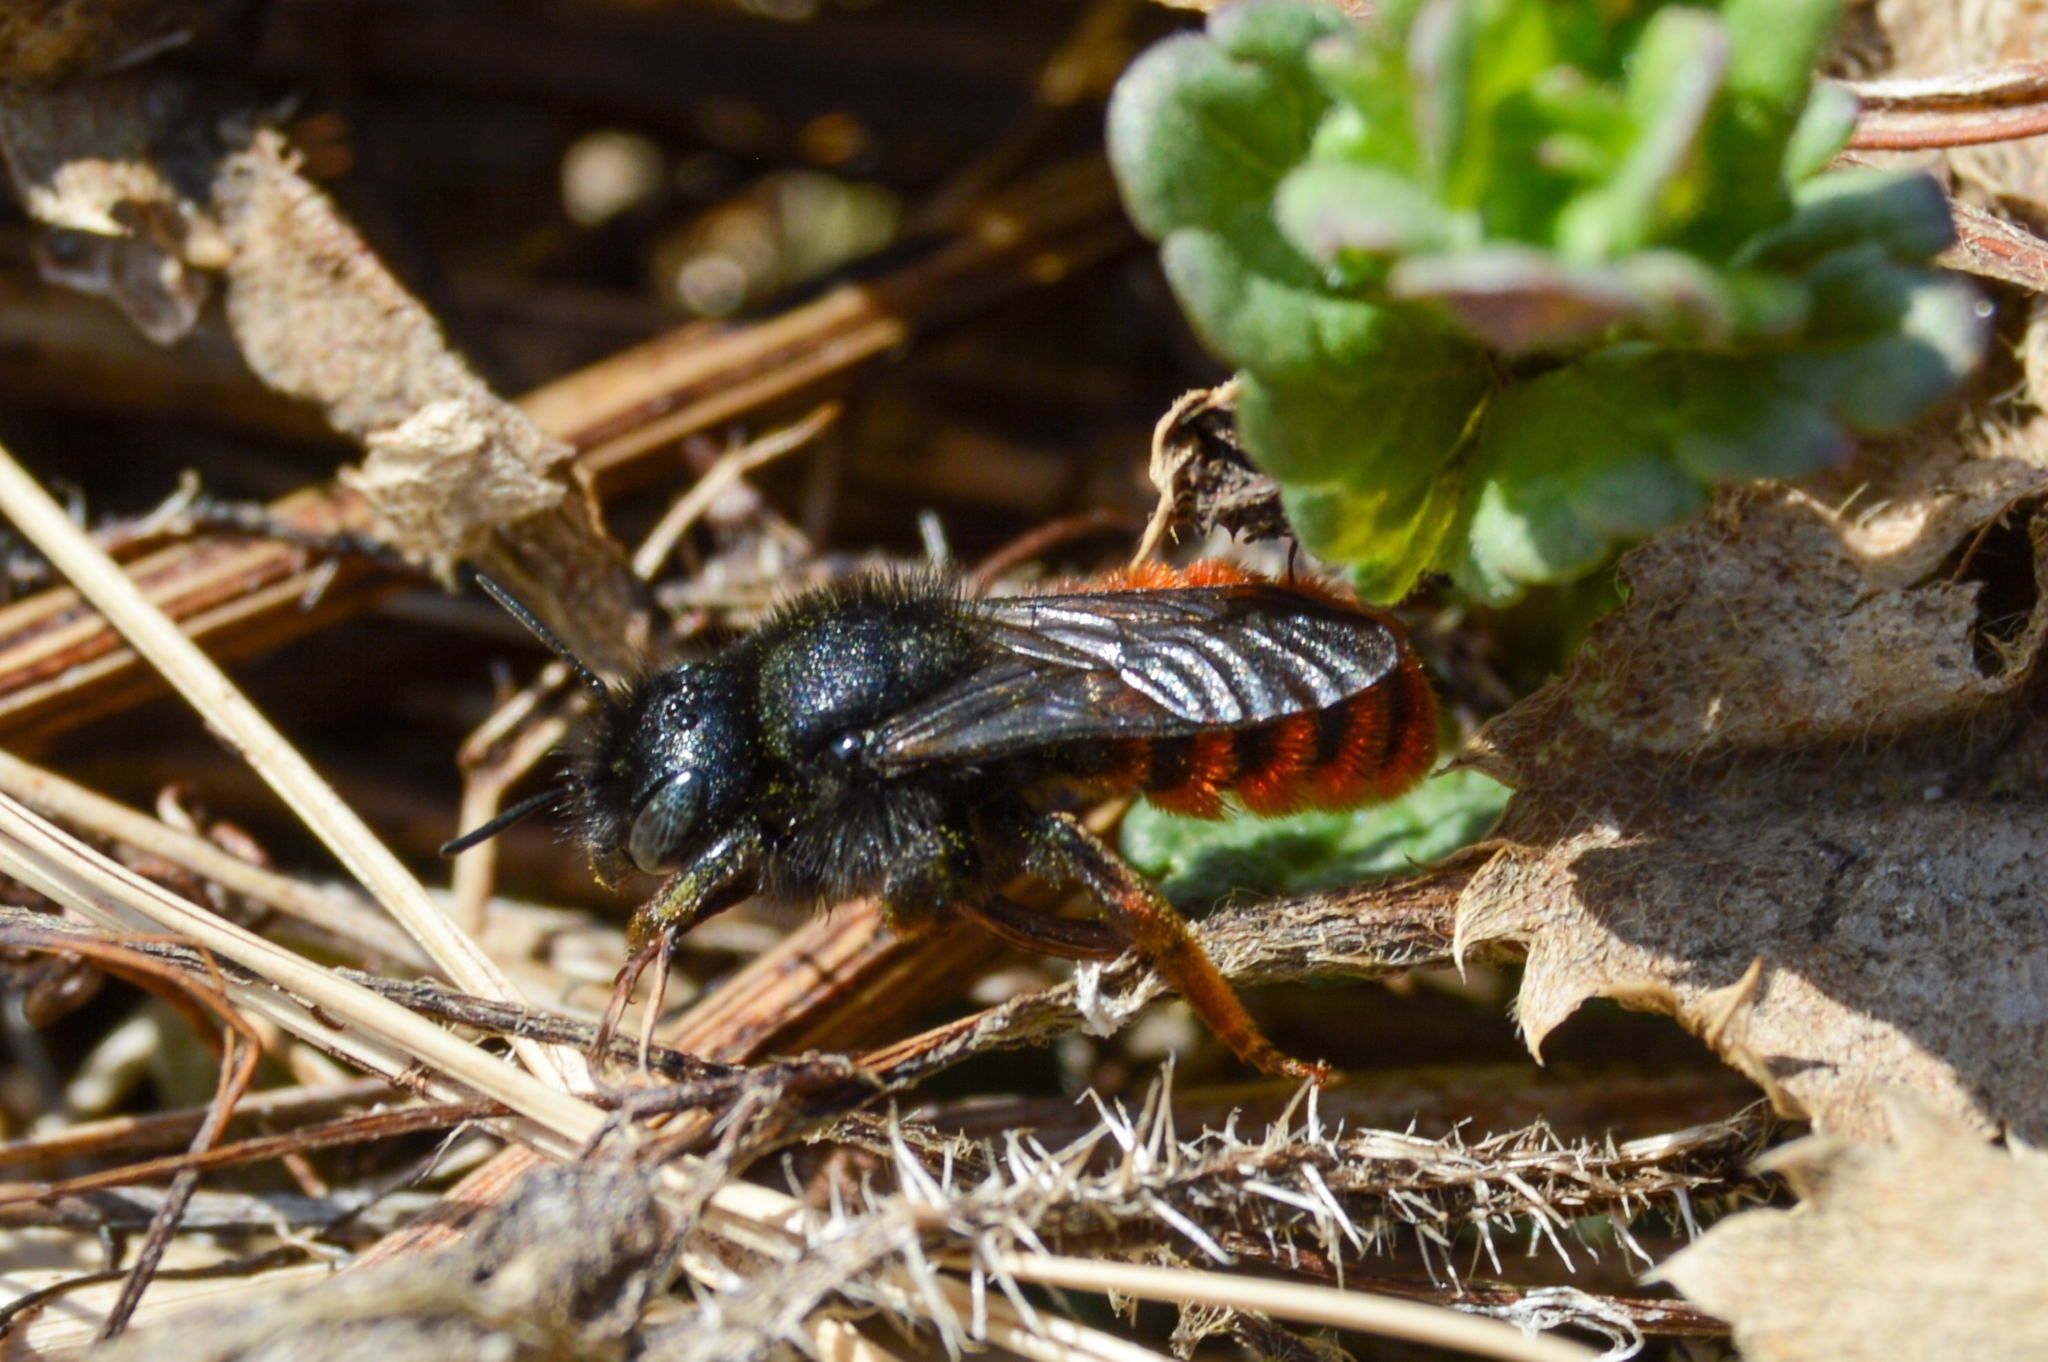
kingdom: Animalia
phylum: Arthropoda
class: Insecta
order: Hymenoptera
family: Megachilidae
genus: Osmia
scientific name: Osmia bicolor
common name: Red-tailed mason bee
